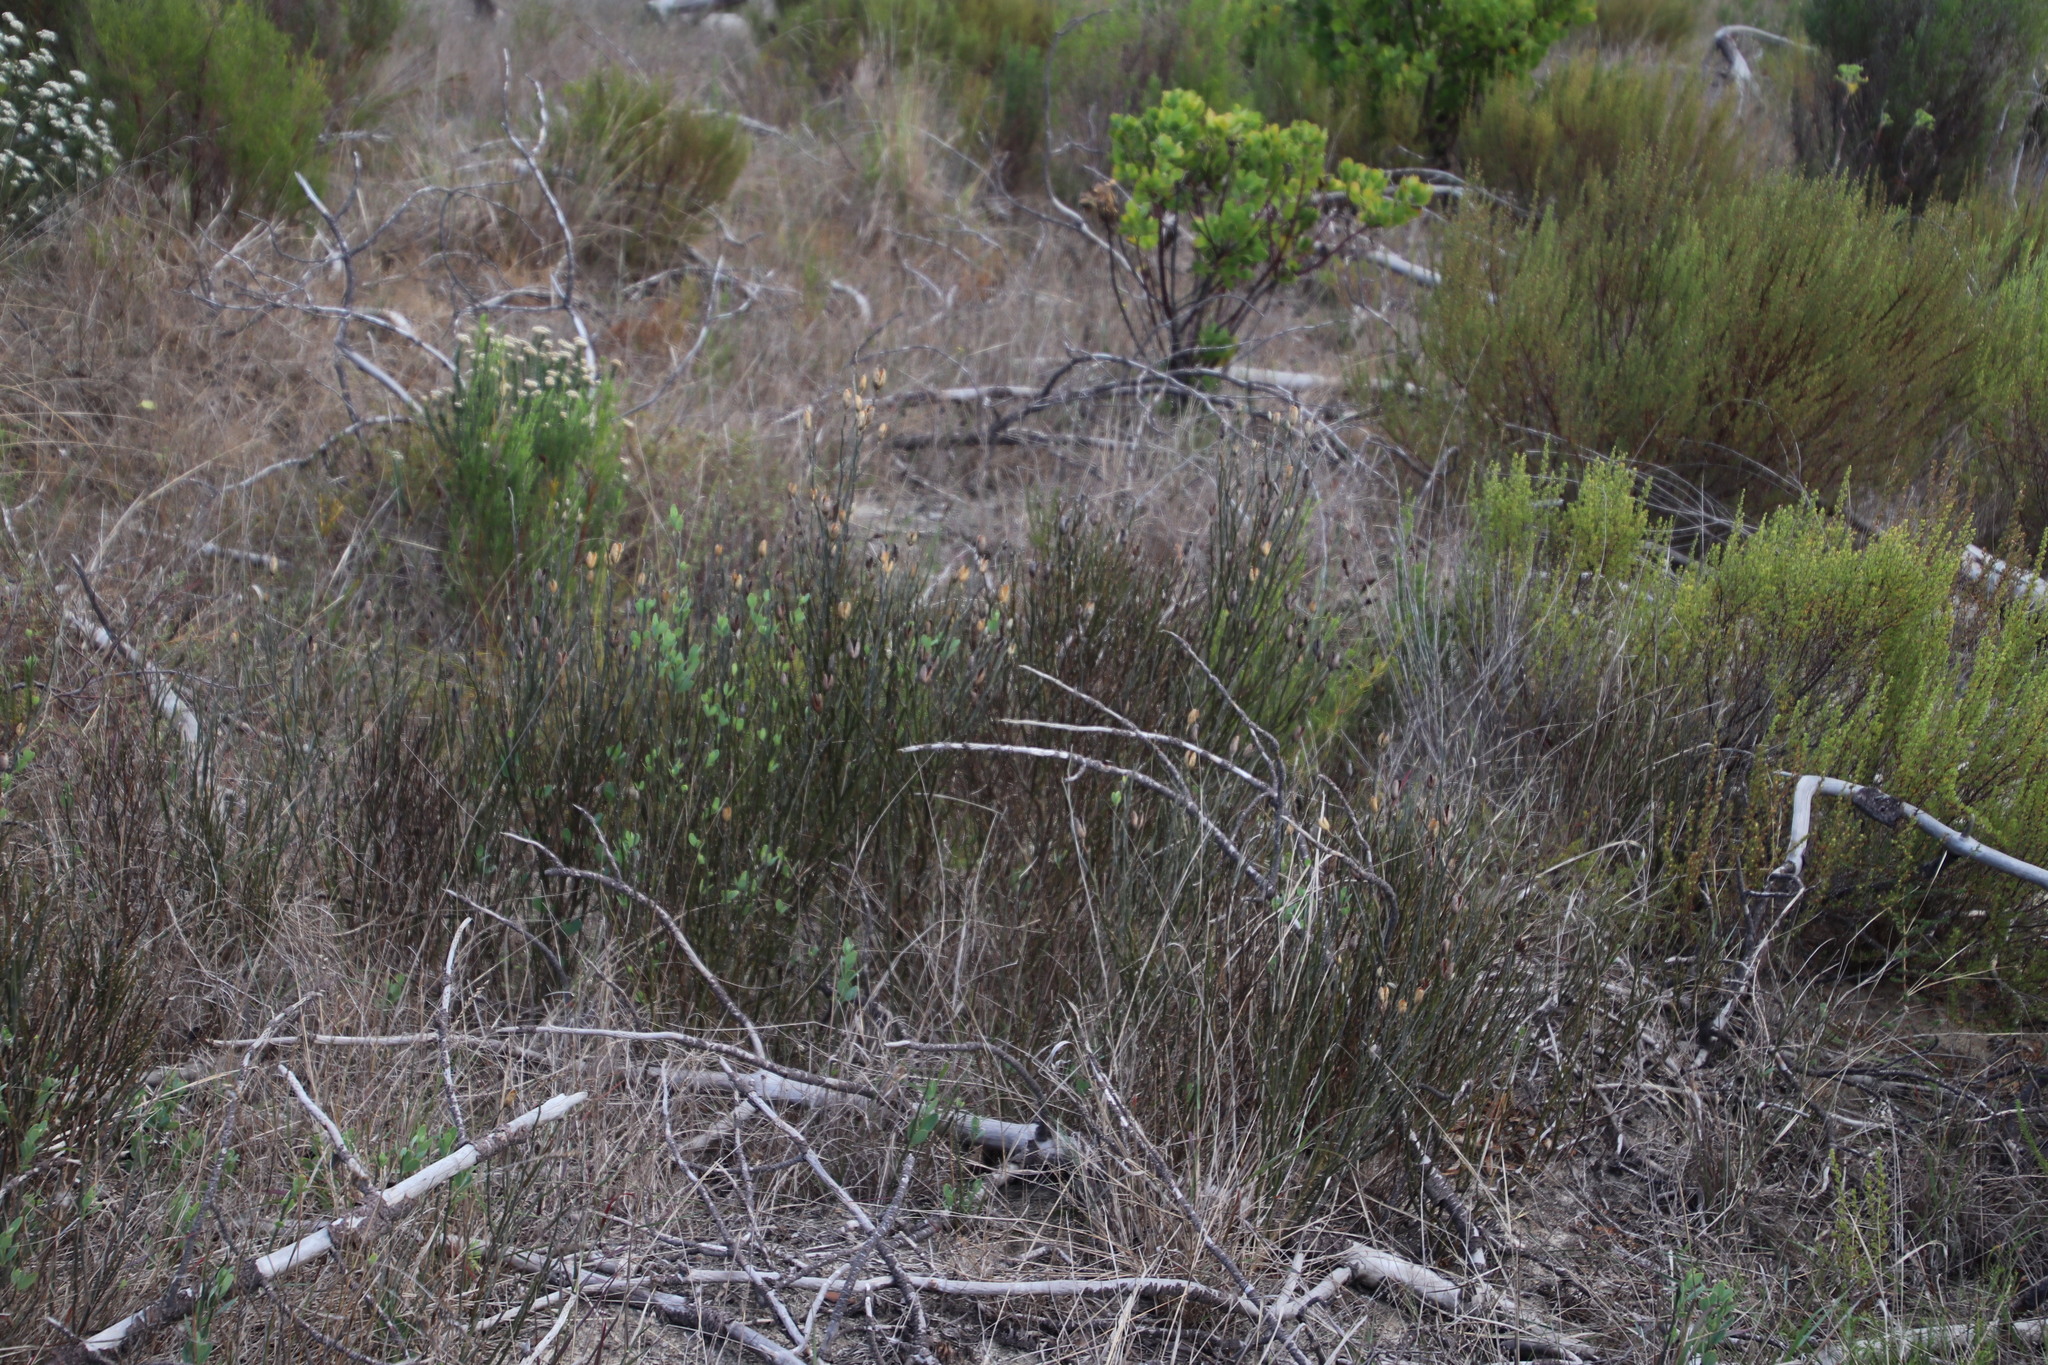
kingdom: Plantae
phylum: Tracheophyta
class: Magnoliopsida
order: Solanales
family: Montiniaceae
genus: Montinia
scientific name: Montinia caryophyllacea
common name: Wild clove-bush
